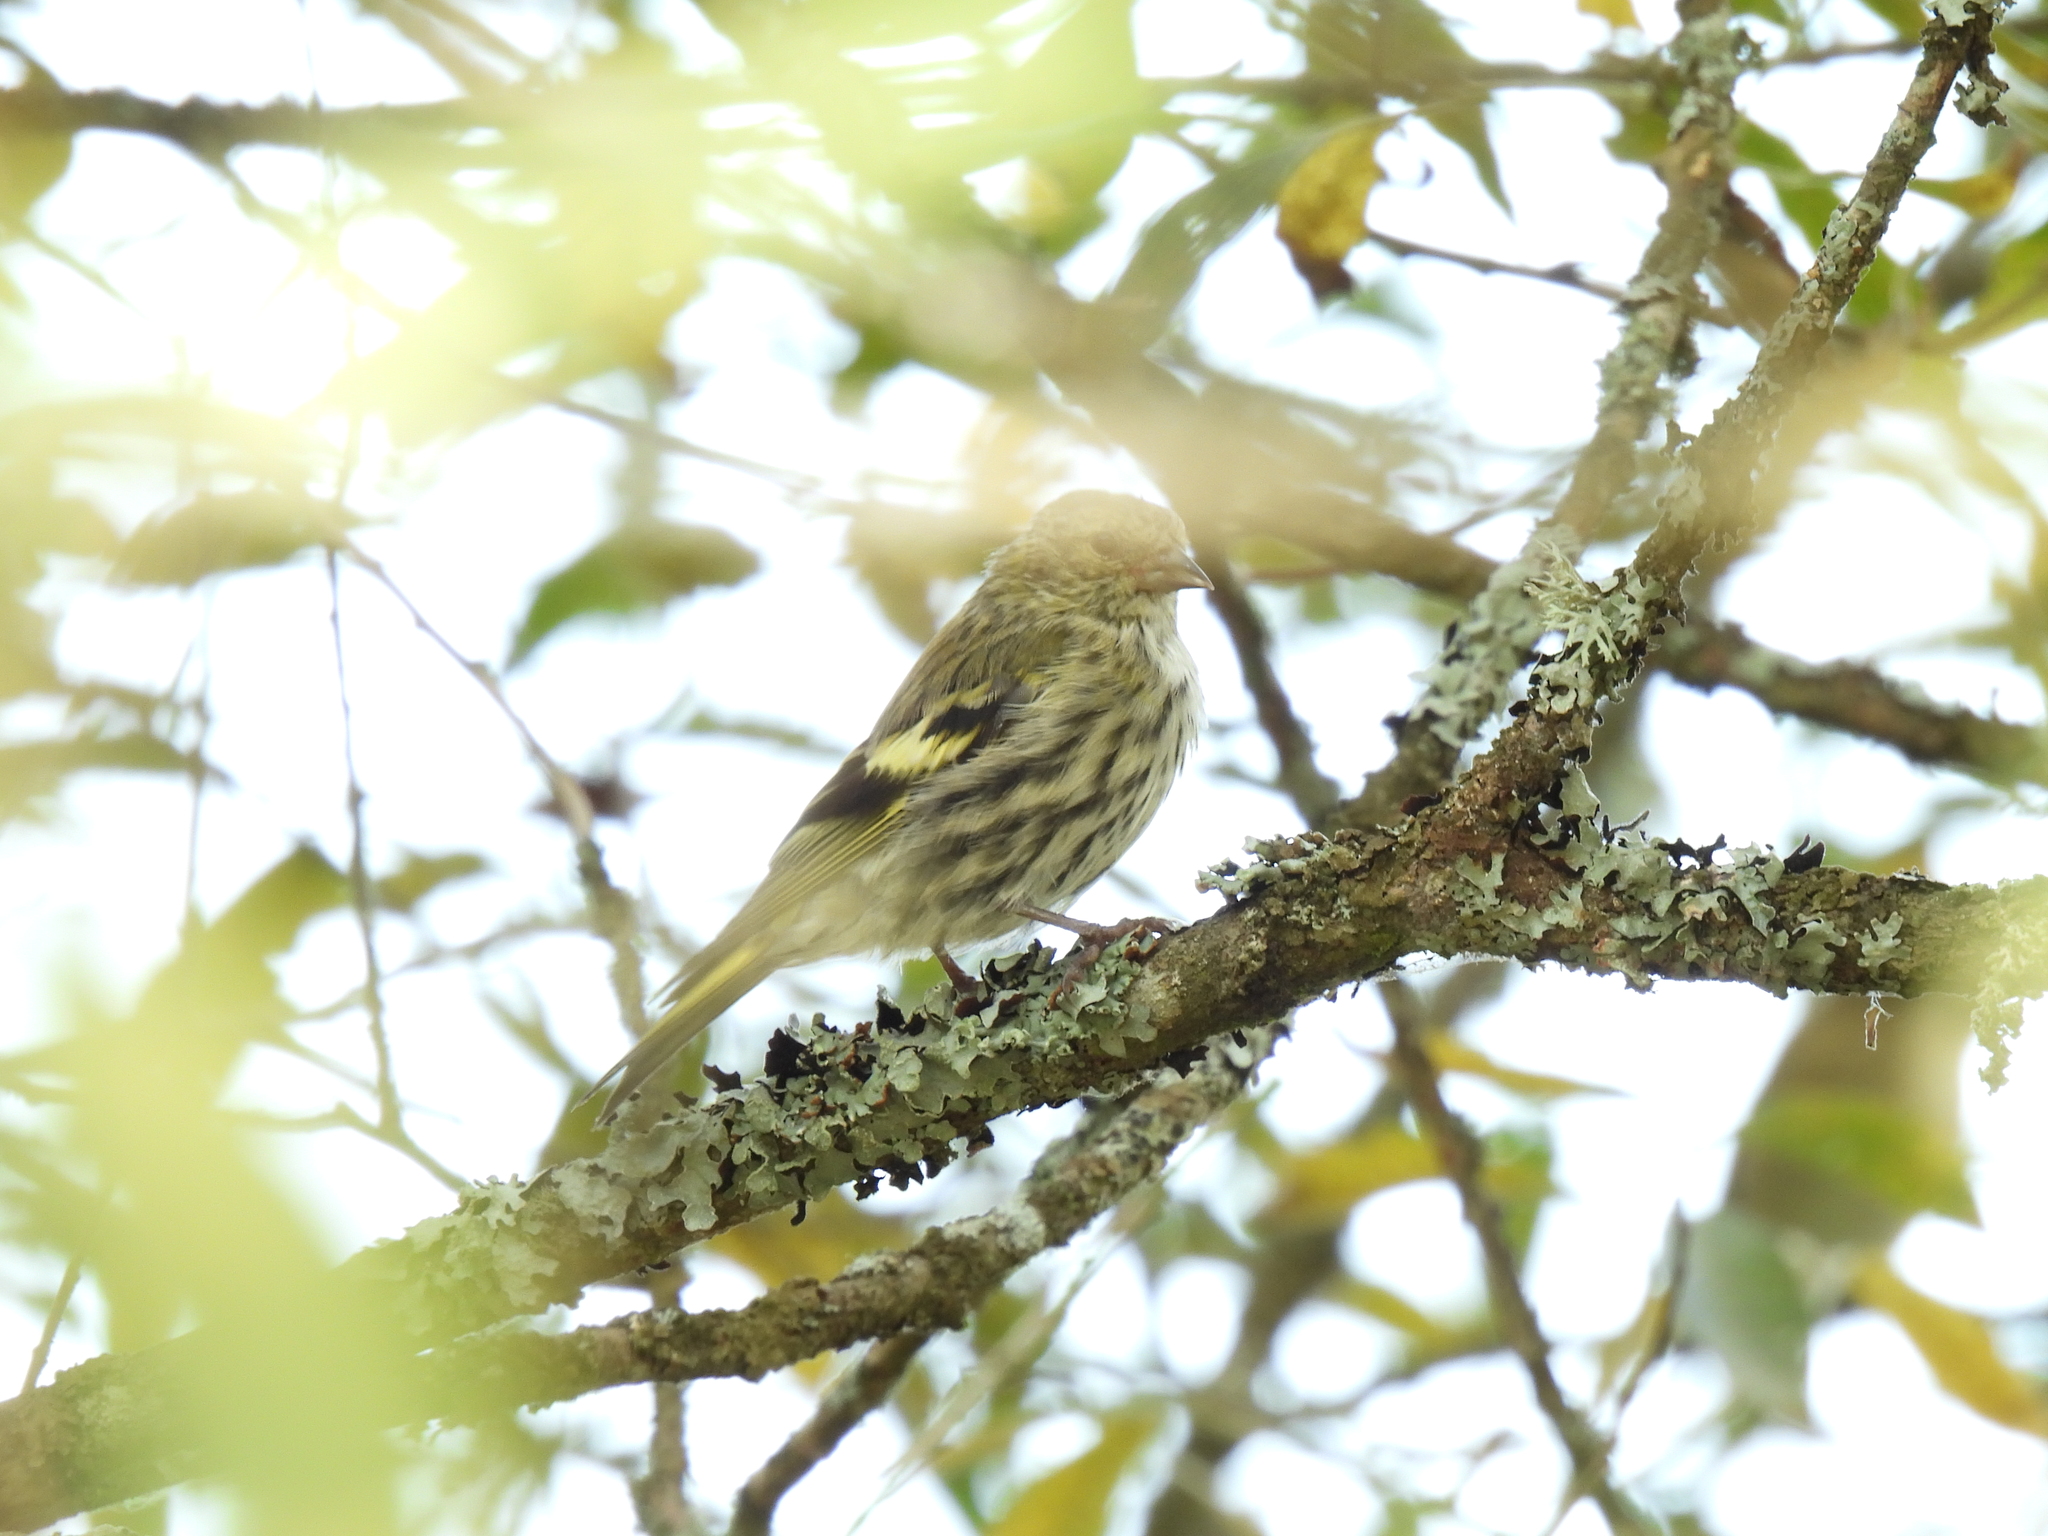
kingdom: Animalia
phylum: Chordata
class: Aves
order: Passeriformes
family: Fringillidae
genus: Spinus
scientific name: Spinus spinus
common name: Eurasian siskin
